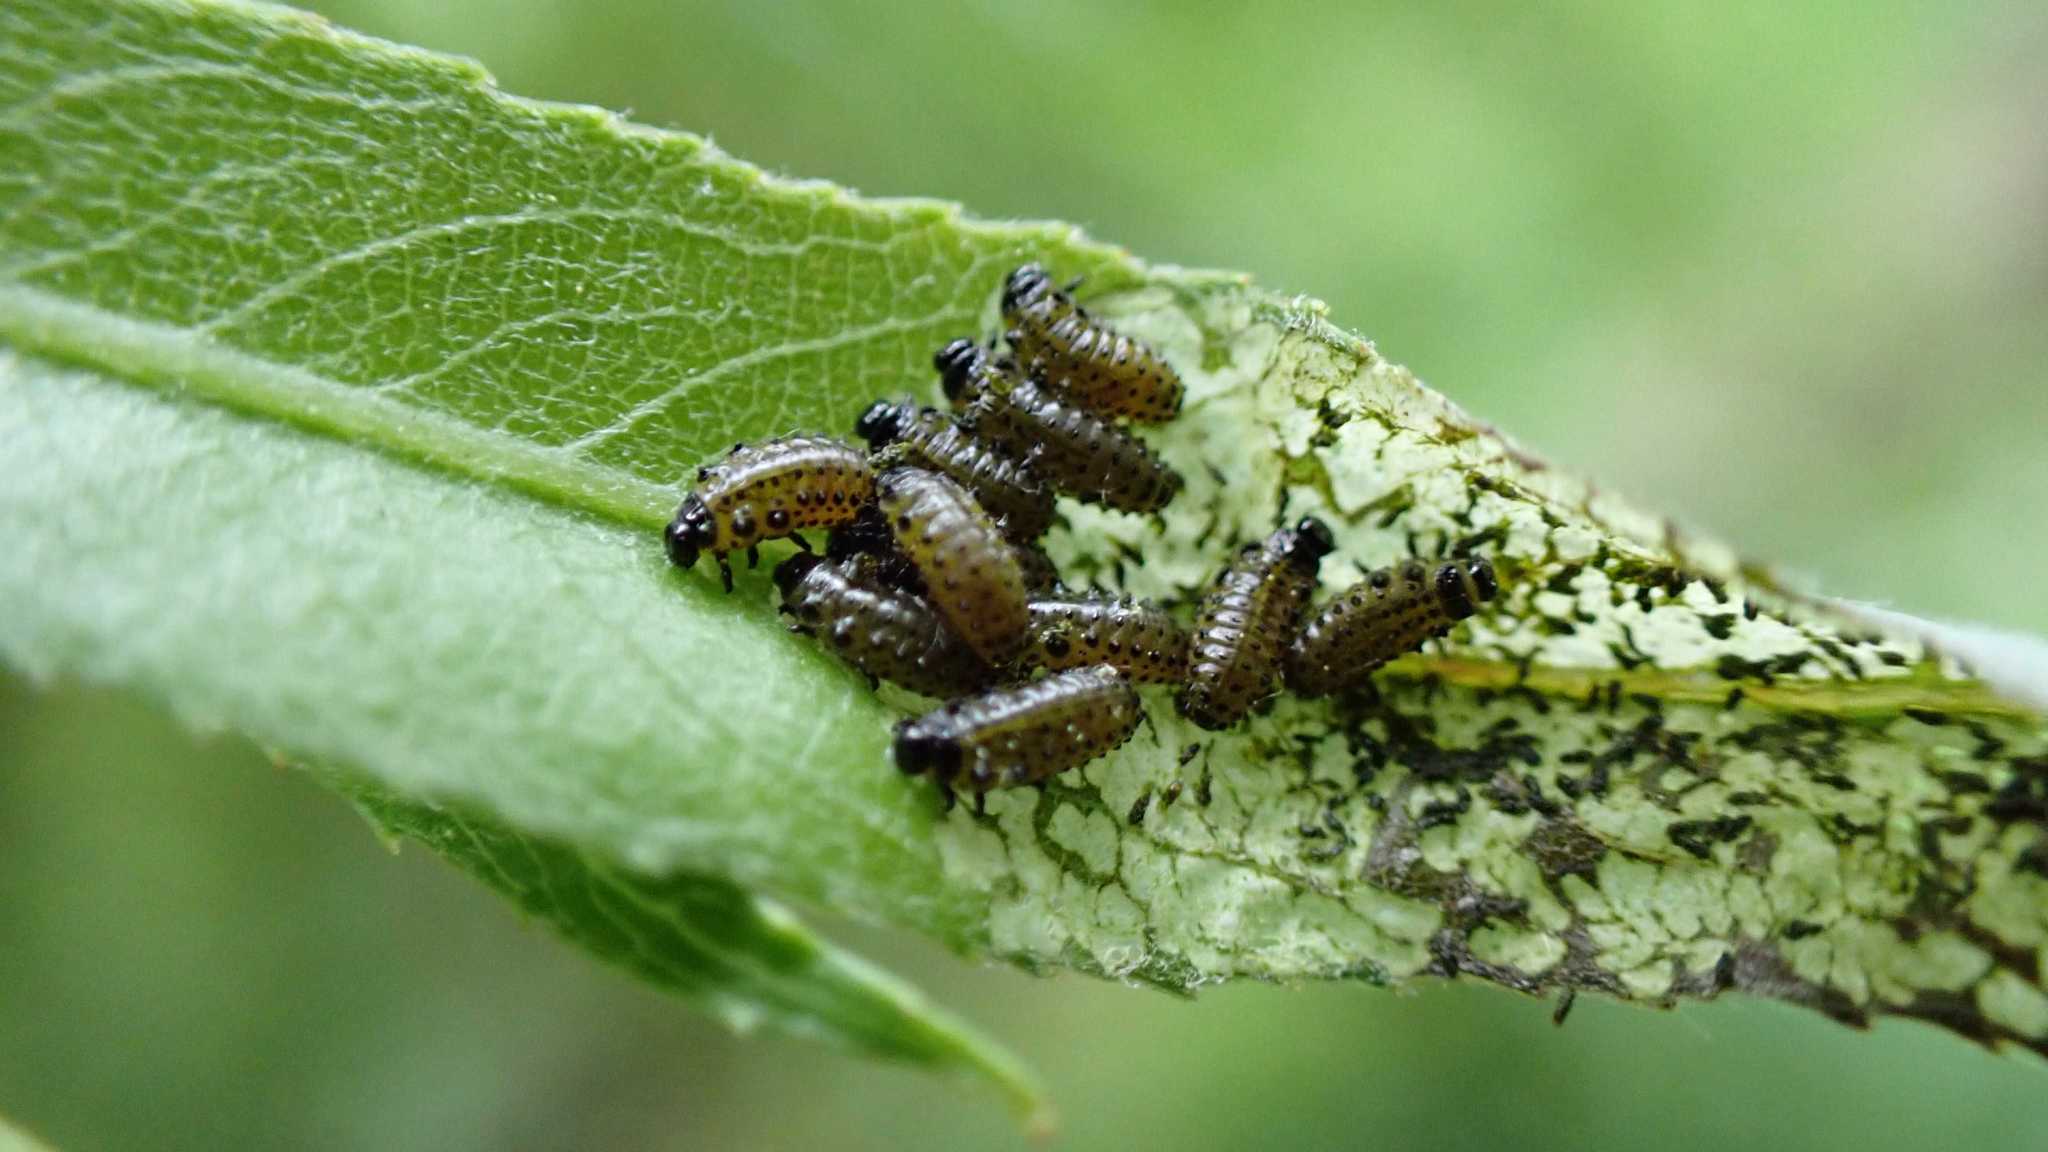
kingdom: Animalia
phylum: Arthropoda
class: Insecta
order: Coleoptera
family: Chrysomelidae
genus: Plagiodera
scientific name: Plagiodera versicolora
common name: Imported willow leaf beetle
